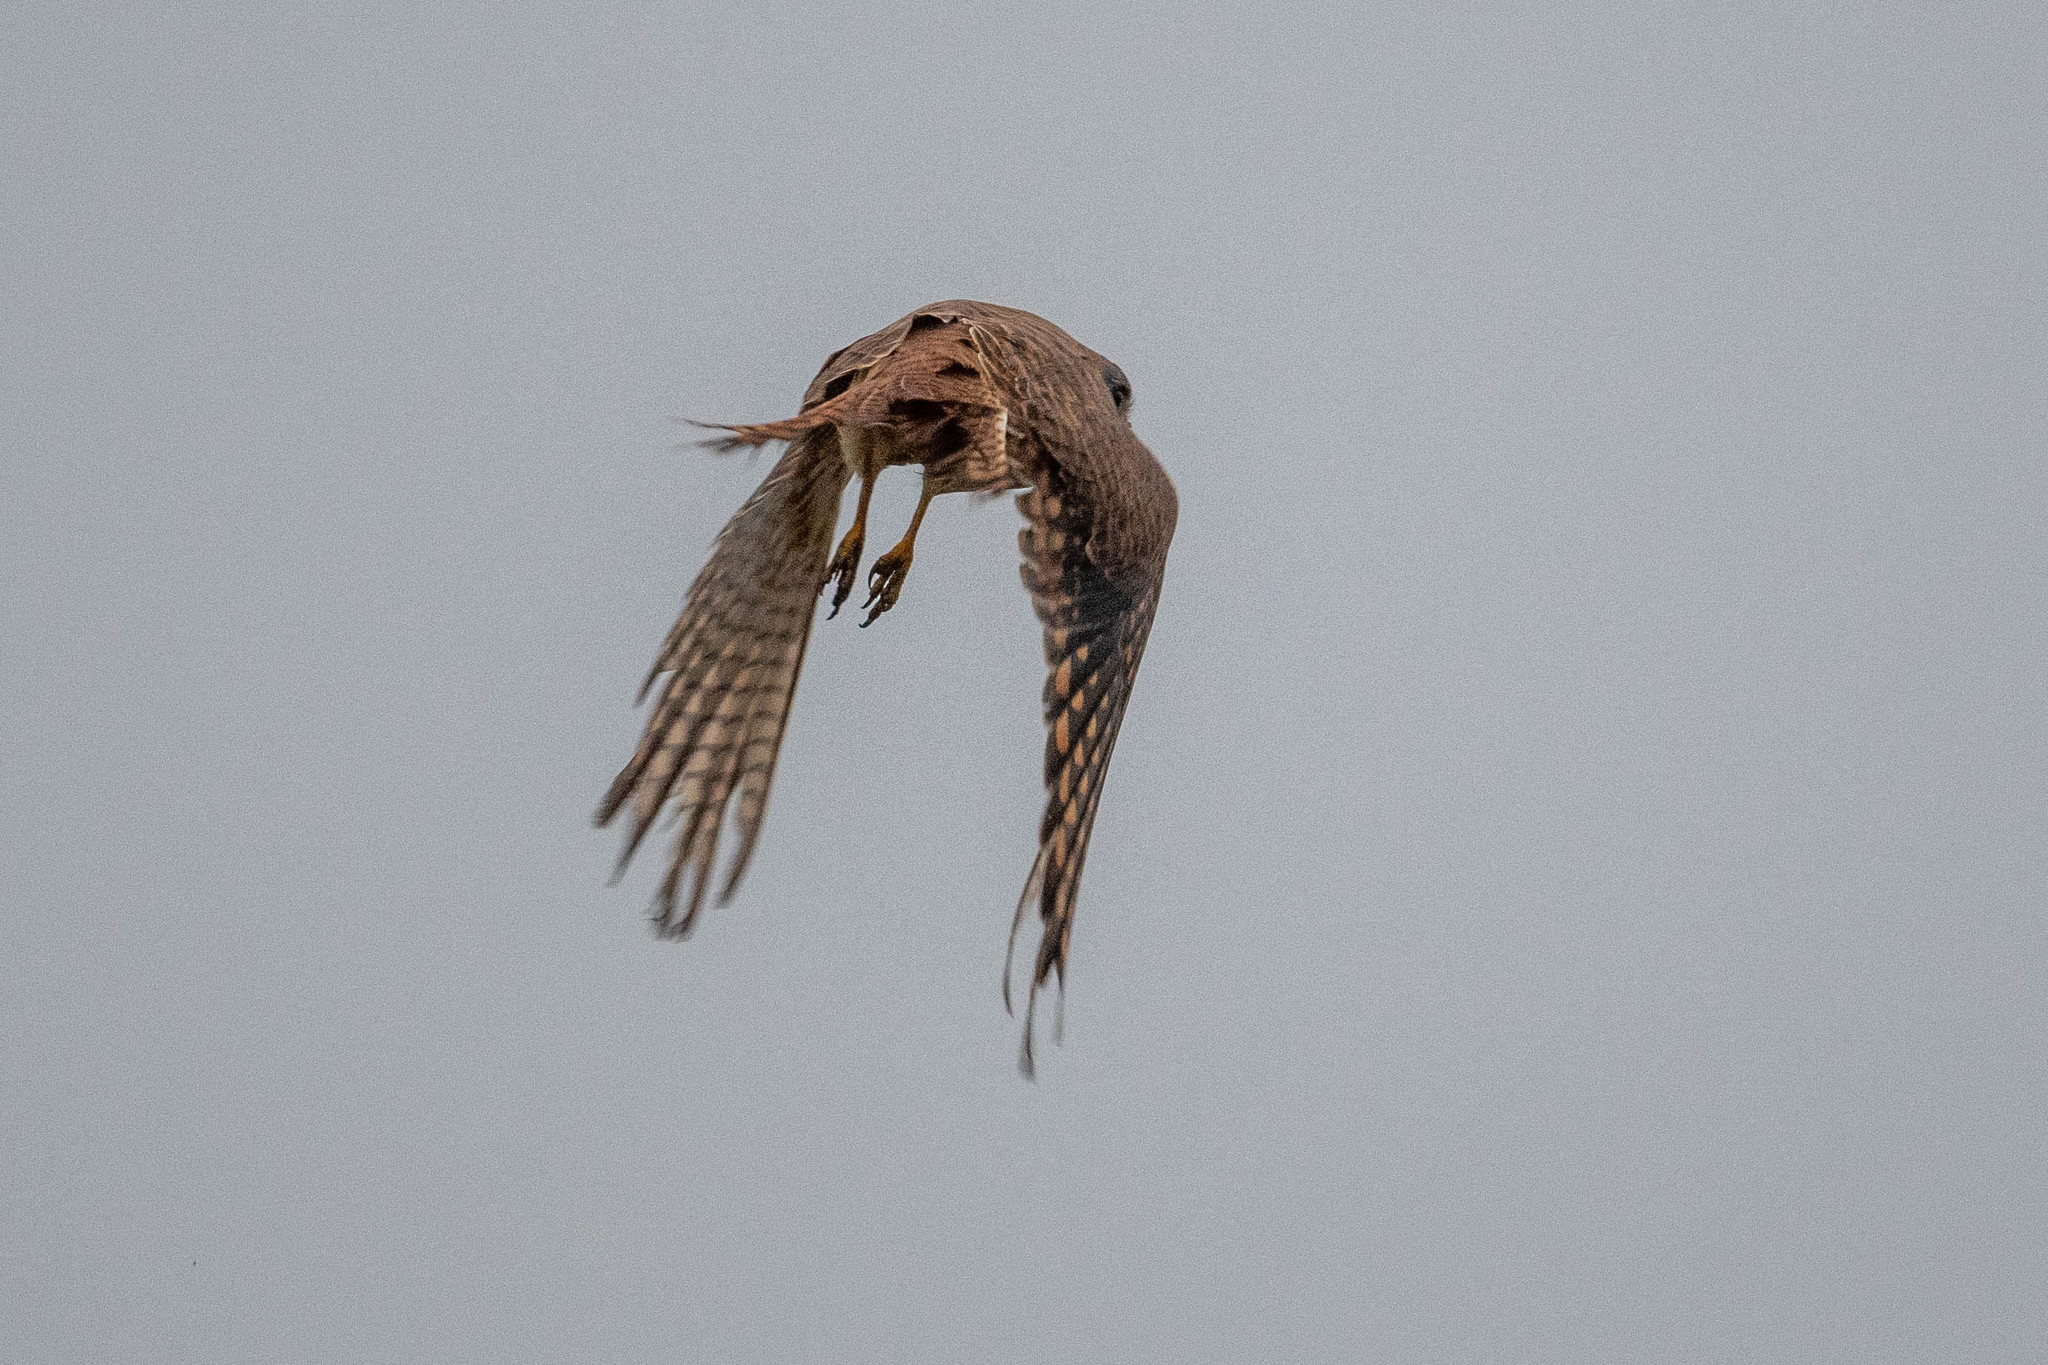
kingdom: Animalia
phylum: Chordata
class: Aves
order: Falconiformes
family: Falconidae
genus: Falco
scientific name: Falco sparverius
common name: American kestrel
